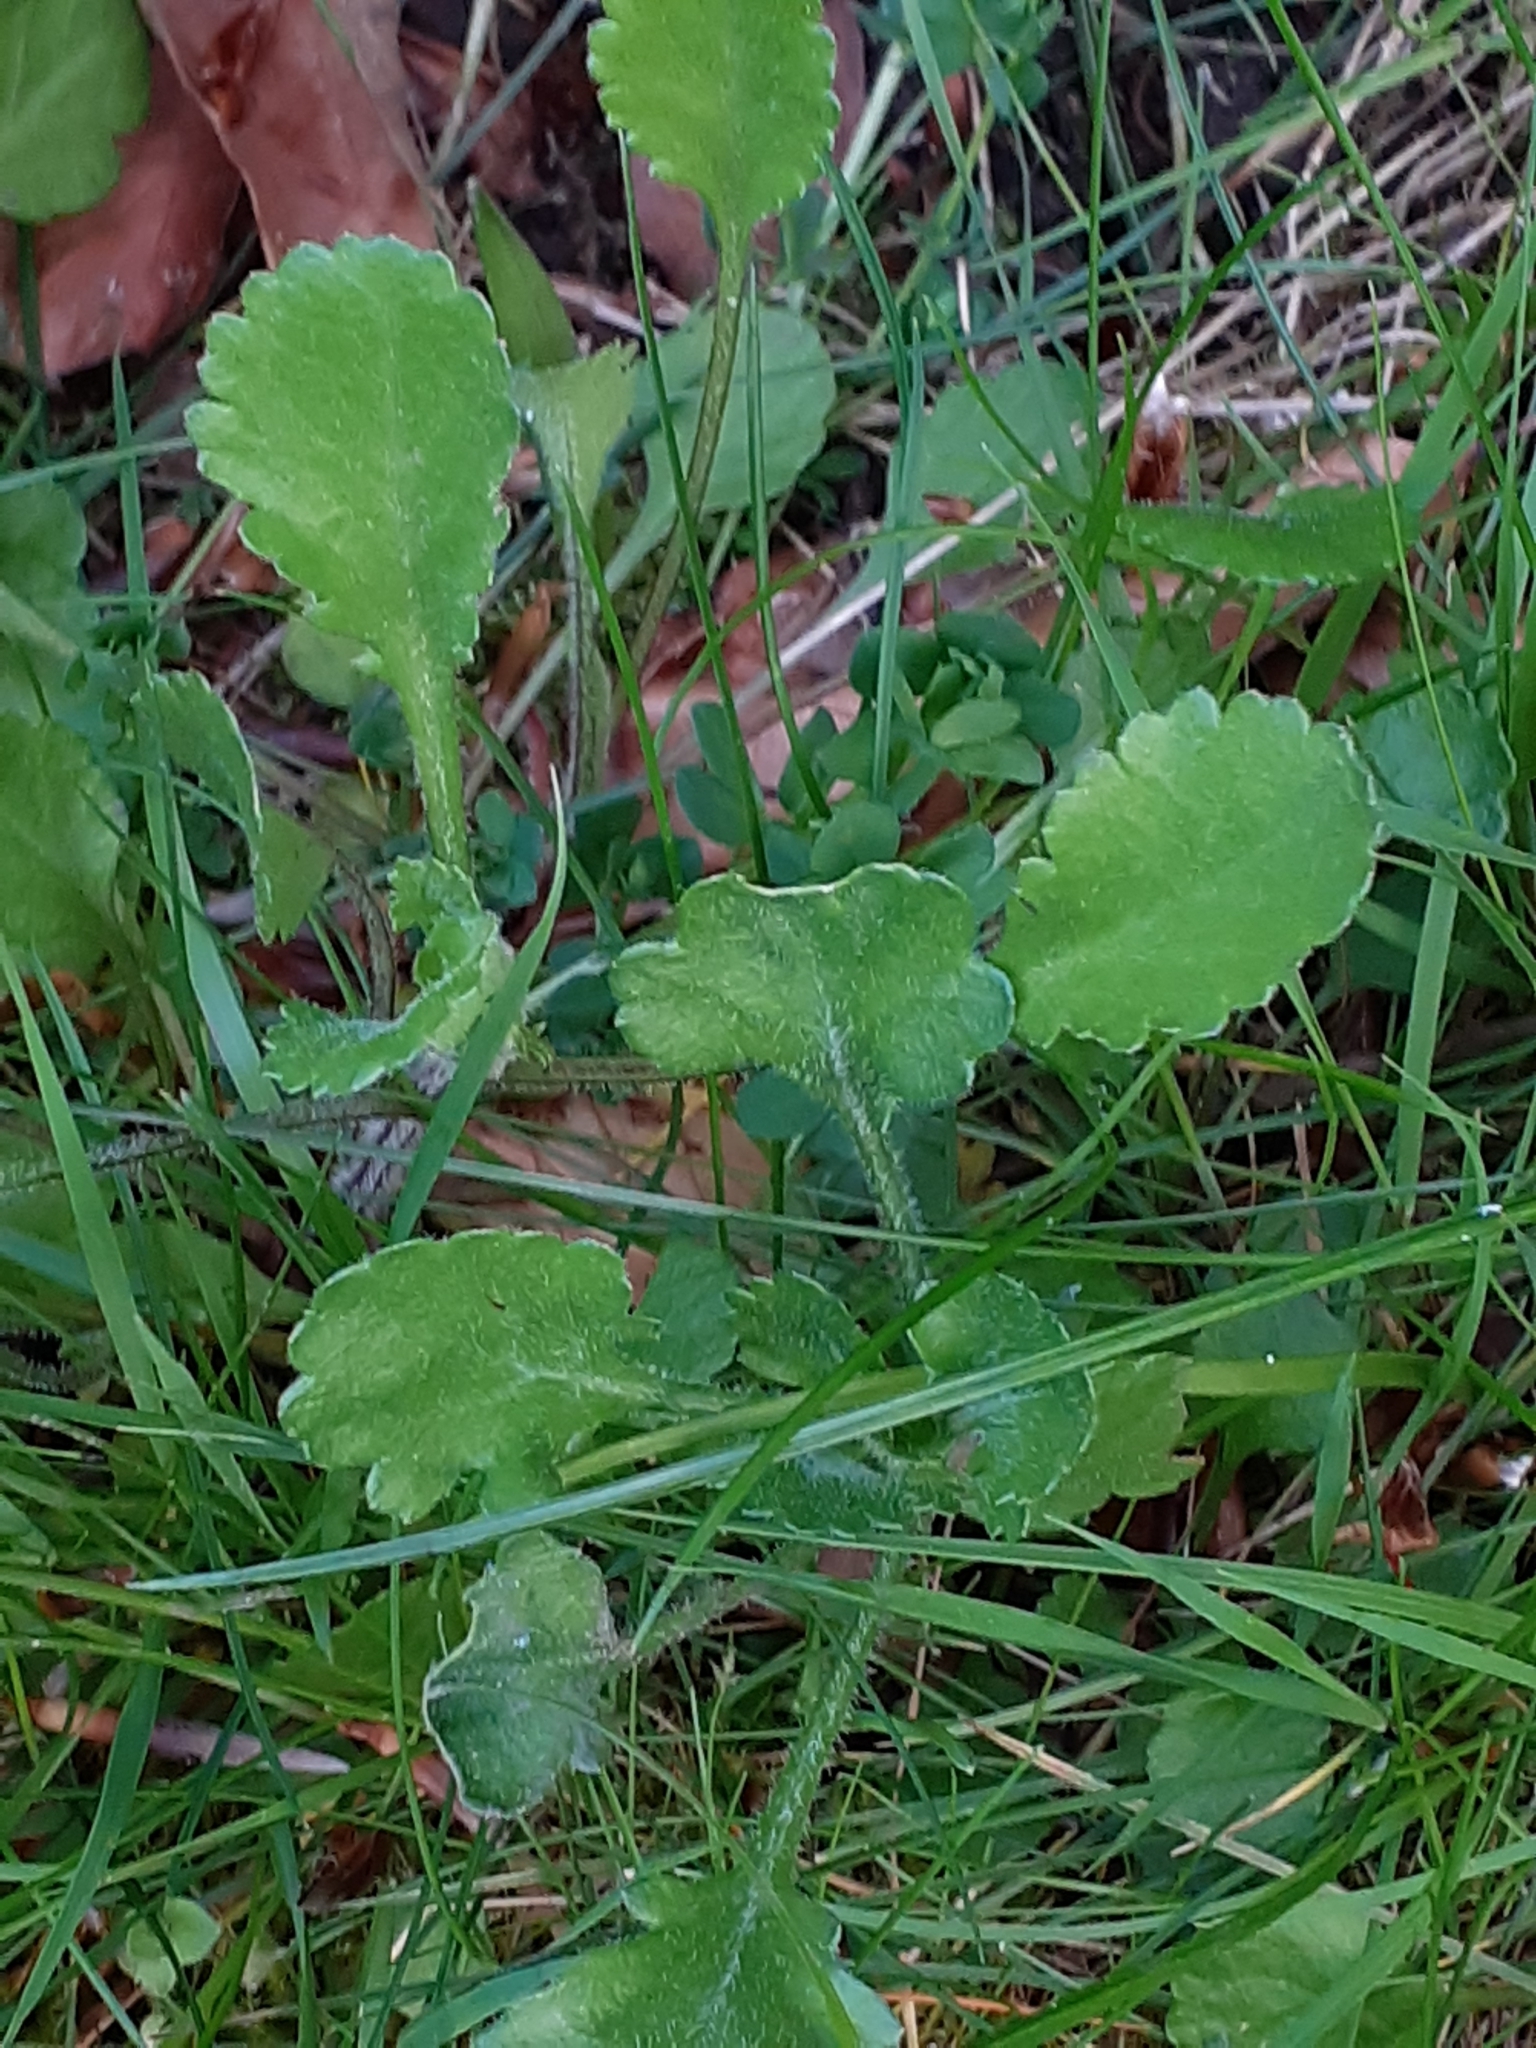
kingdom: Plantae
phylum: Tracheophyta
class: Magnoliopsida
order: Asterales
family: Asteraceae
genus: Leucanthemum
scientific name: Leucanthemum vulgare
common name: Oxeye daisy
